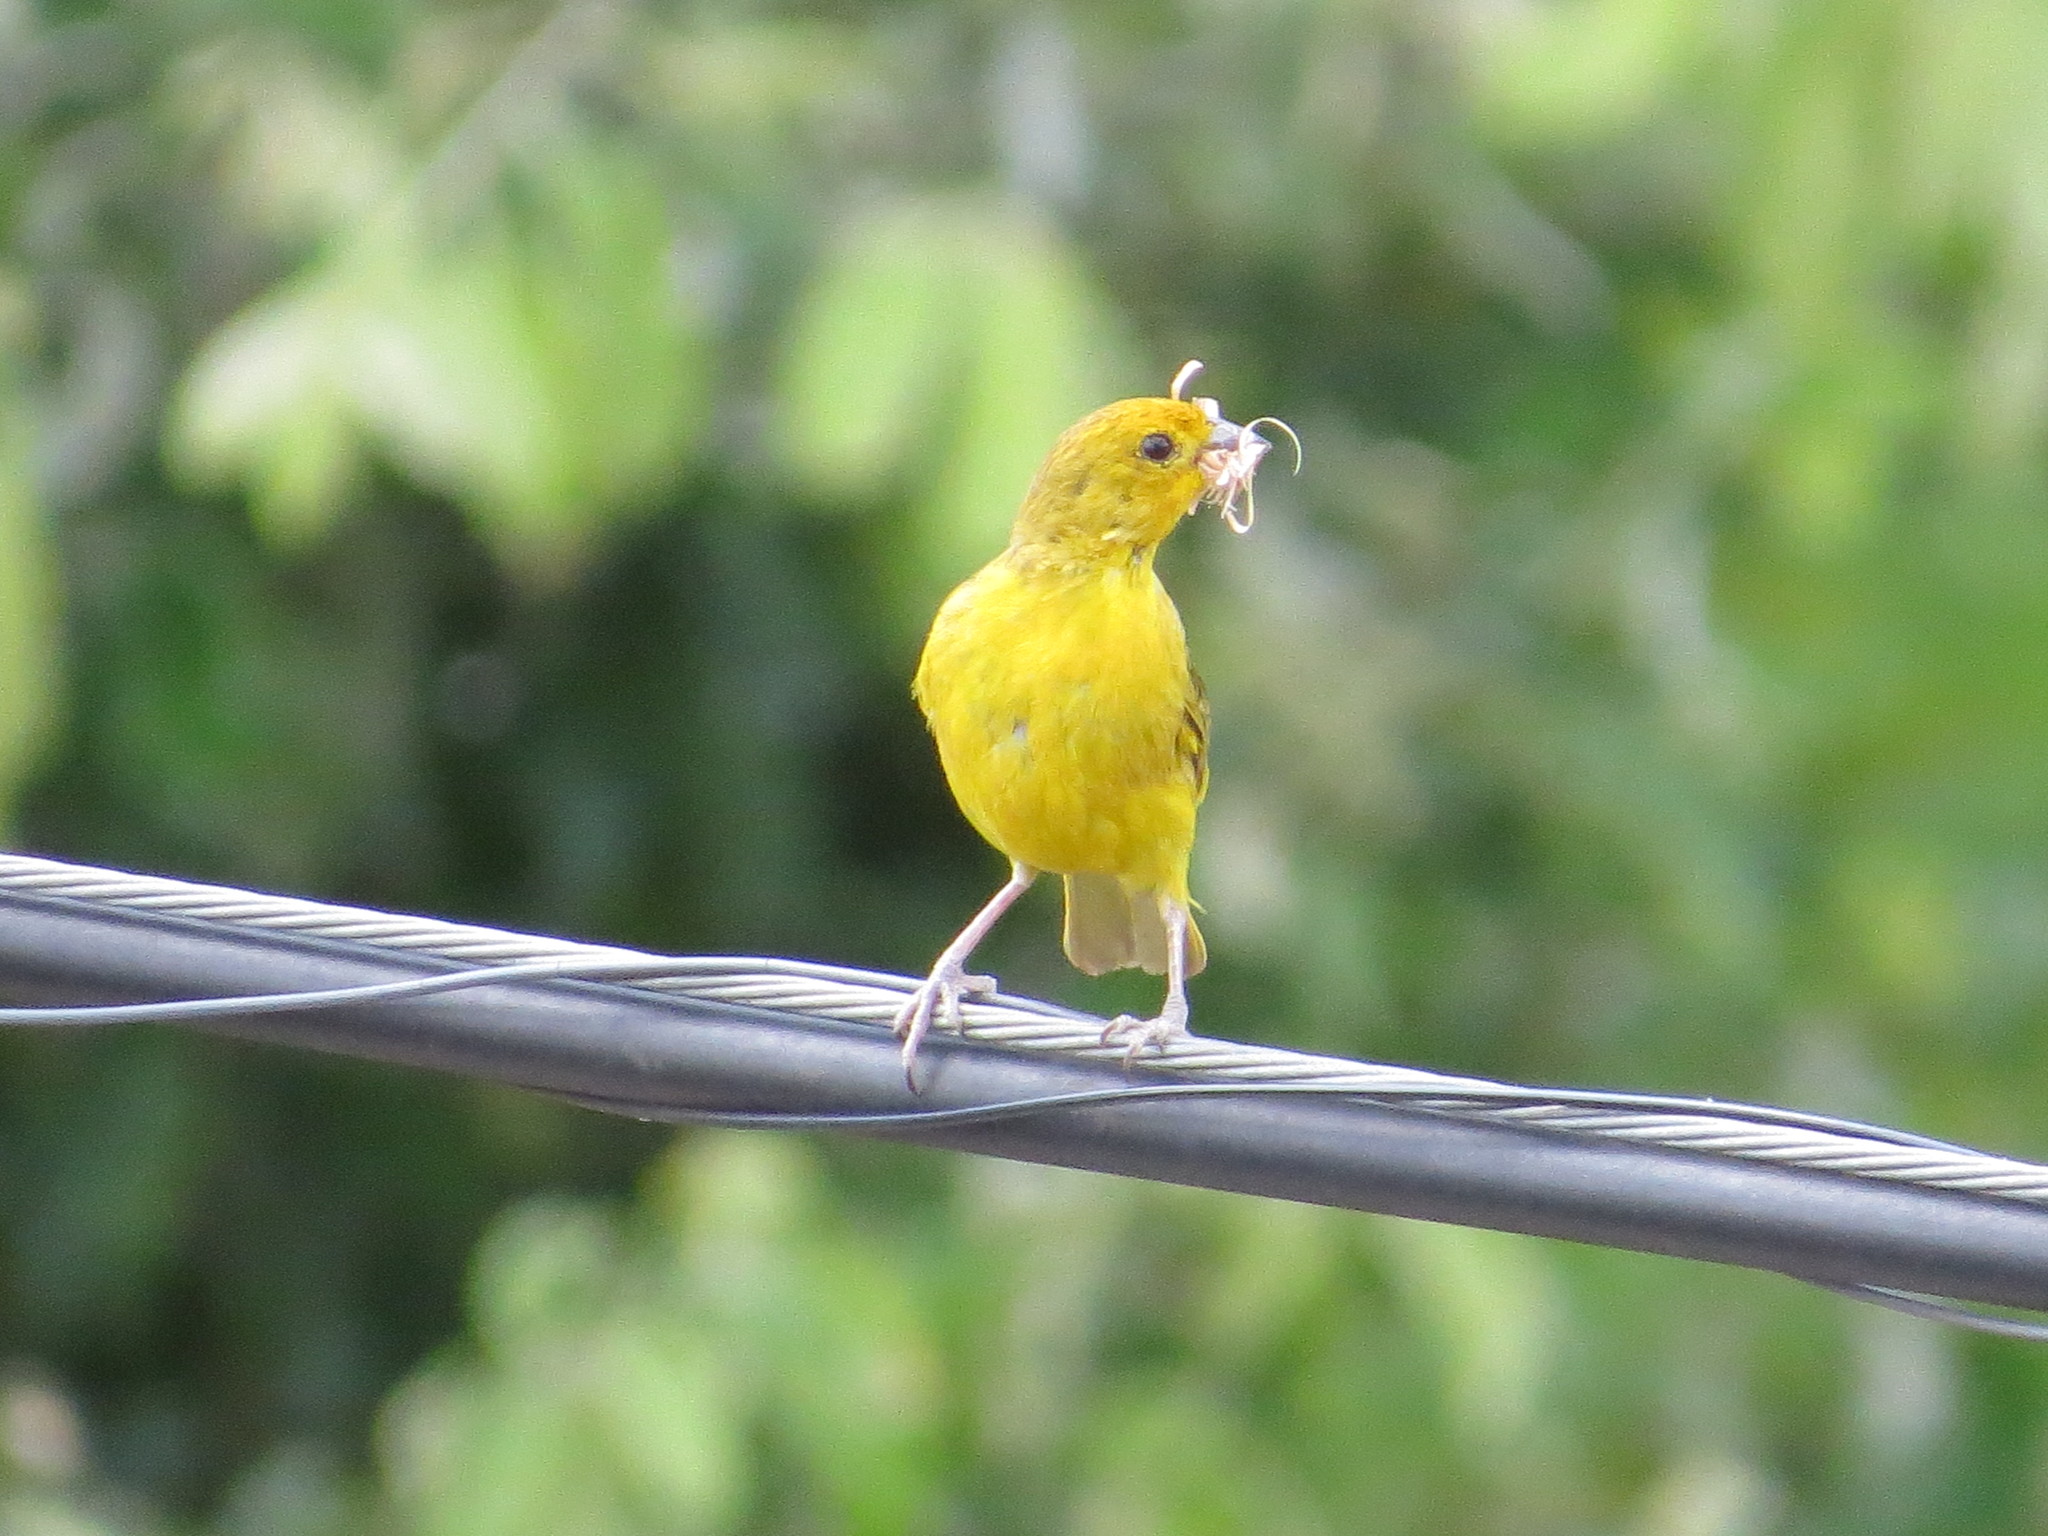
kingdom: Animalia
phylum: Chordata
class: Aves
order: Passeriformes
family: Thraupidae
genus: Sicalis
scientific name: Sicalis flaveola
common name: Saffron finch
